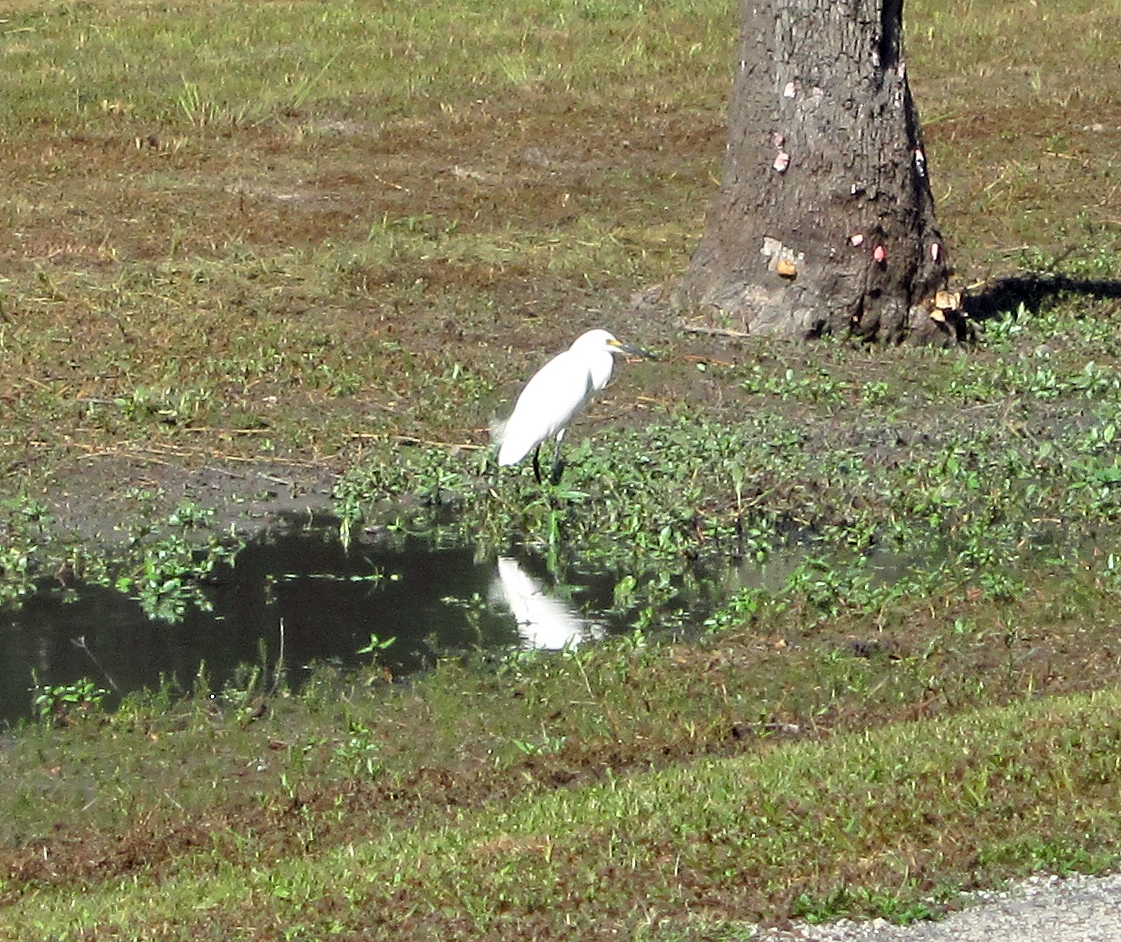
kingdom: Animalia
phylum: Chordata
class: Aves
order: Pelecaniformes
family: Ardeidae
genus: Egretta
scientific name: Egretta thula
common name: Snowy egret
